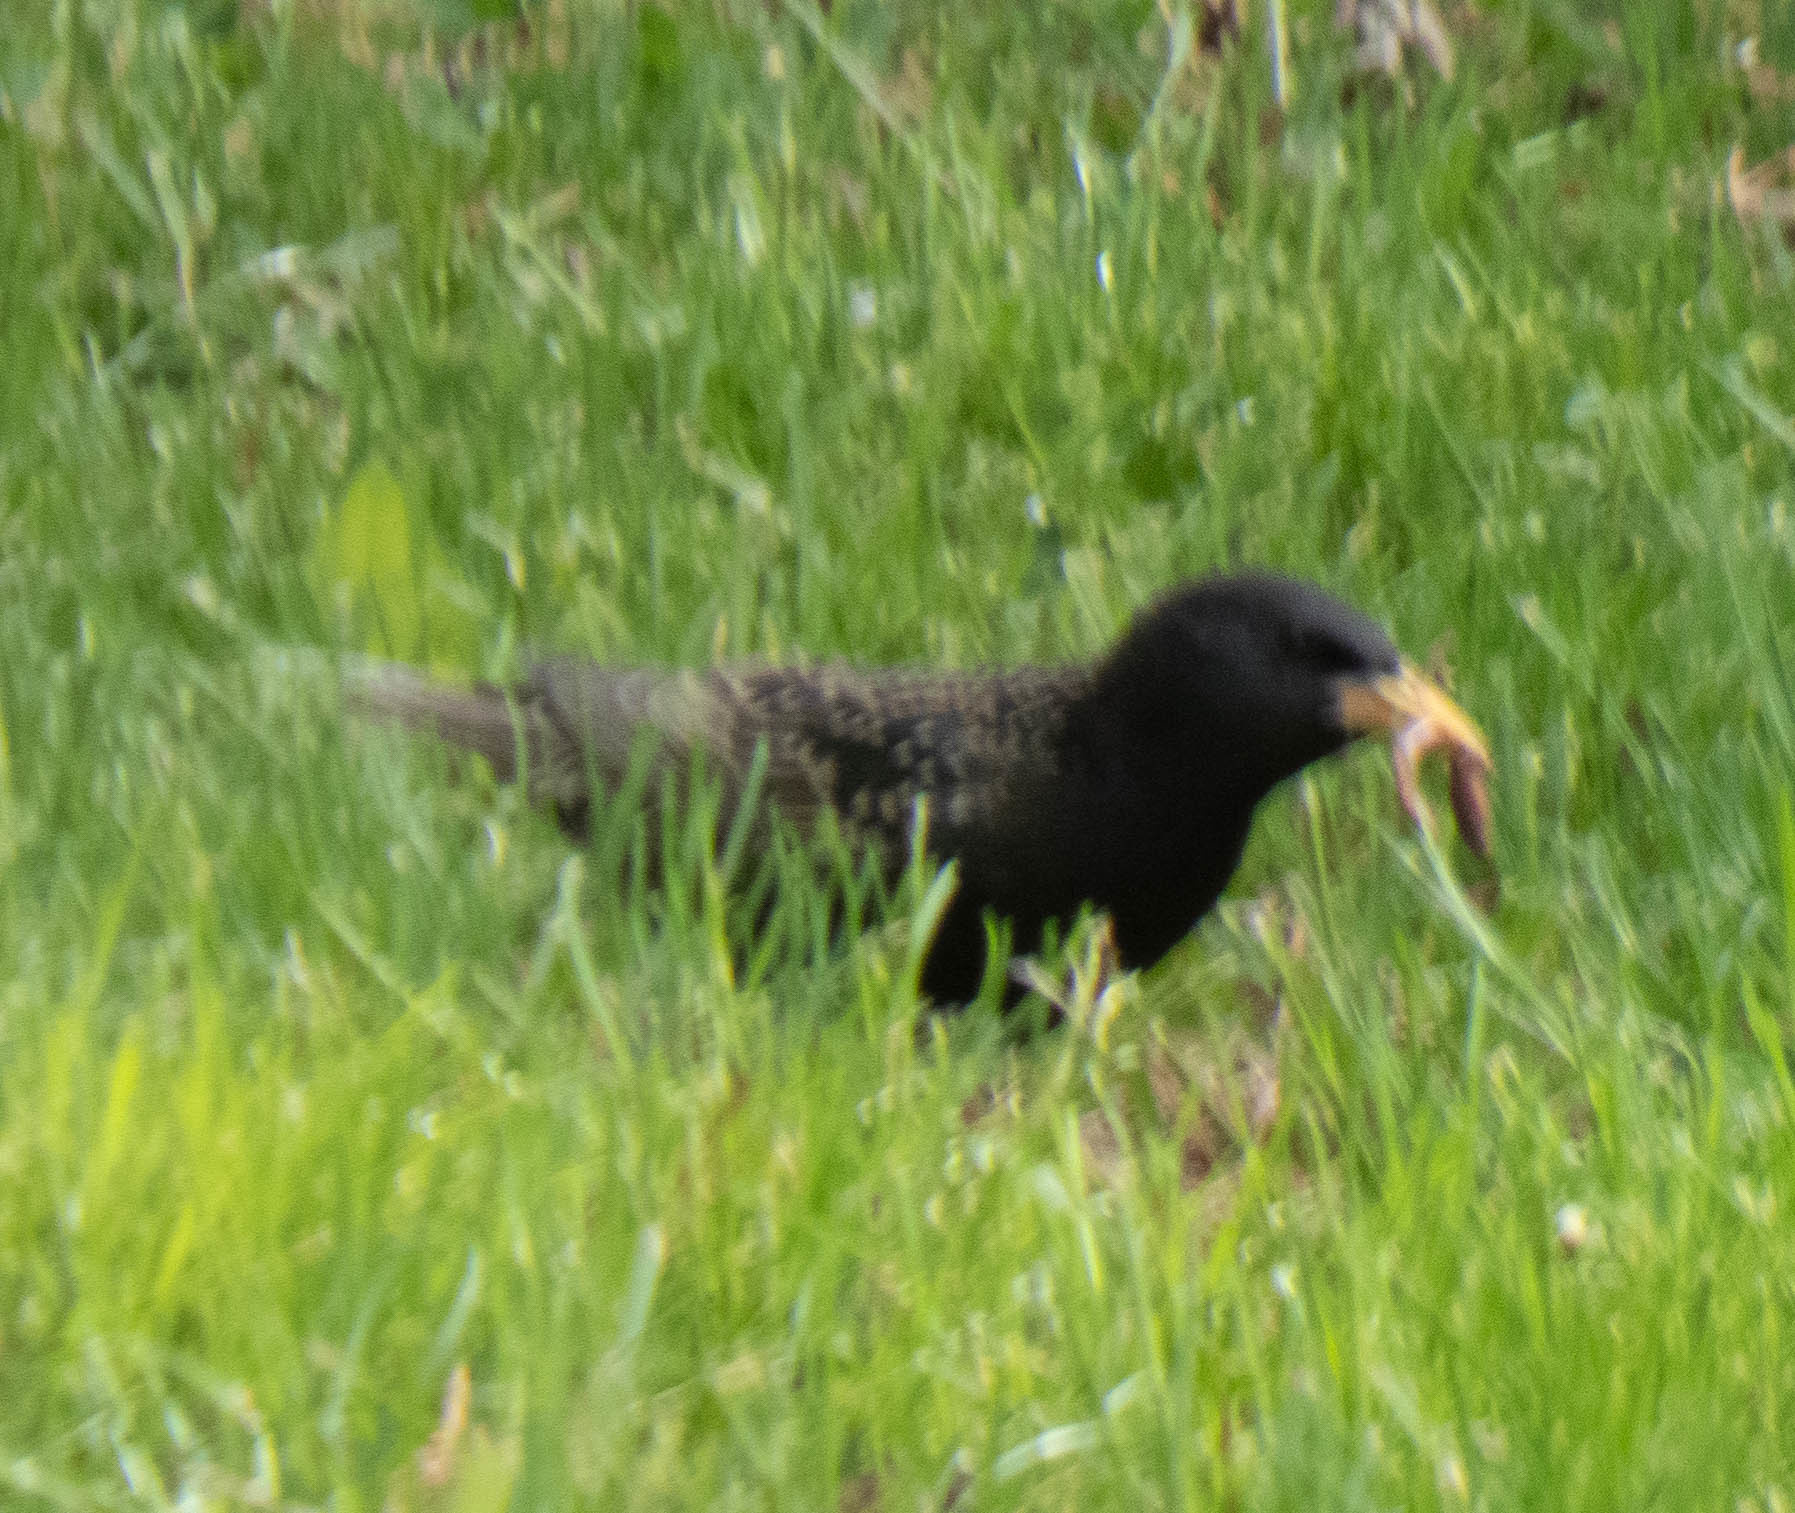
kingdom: Animalia
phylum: Chordata
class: Aves
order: Passeriformes
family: Sturnidae
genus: Sturnus
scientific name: Sturnus vulgaris
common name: Common starling
